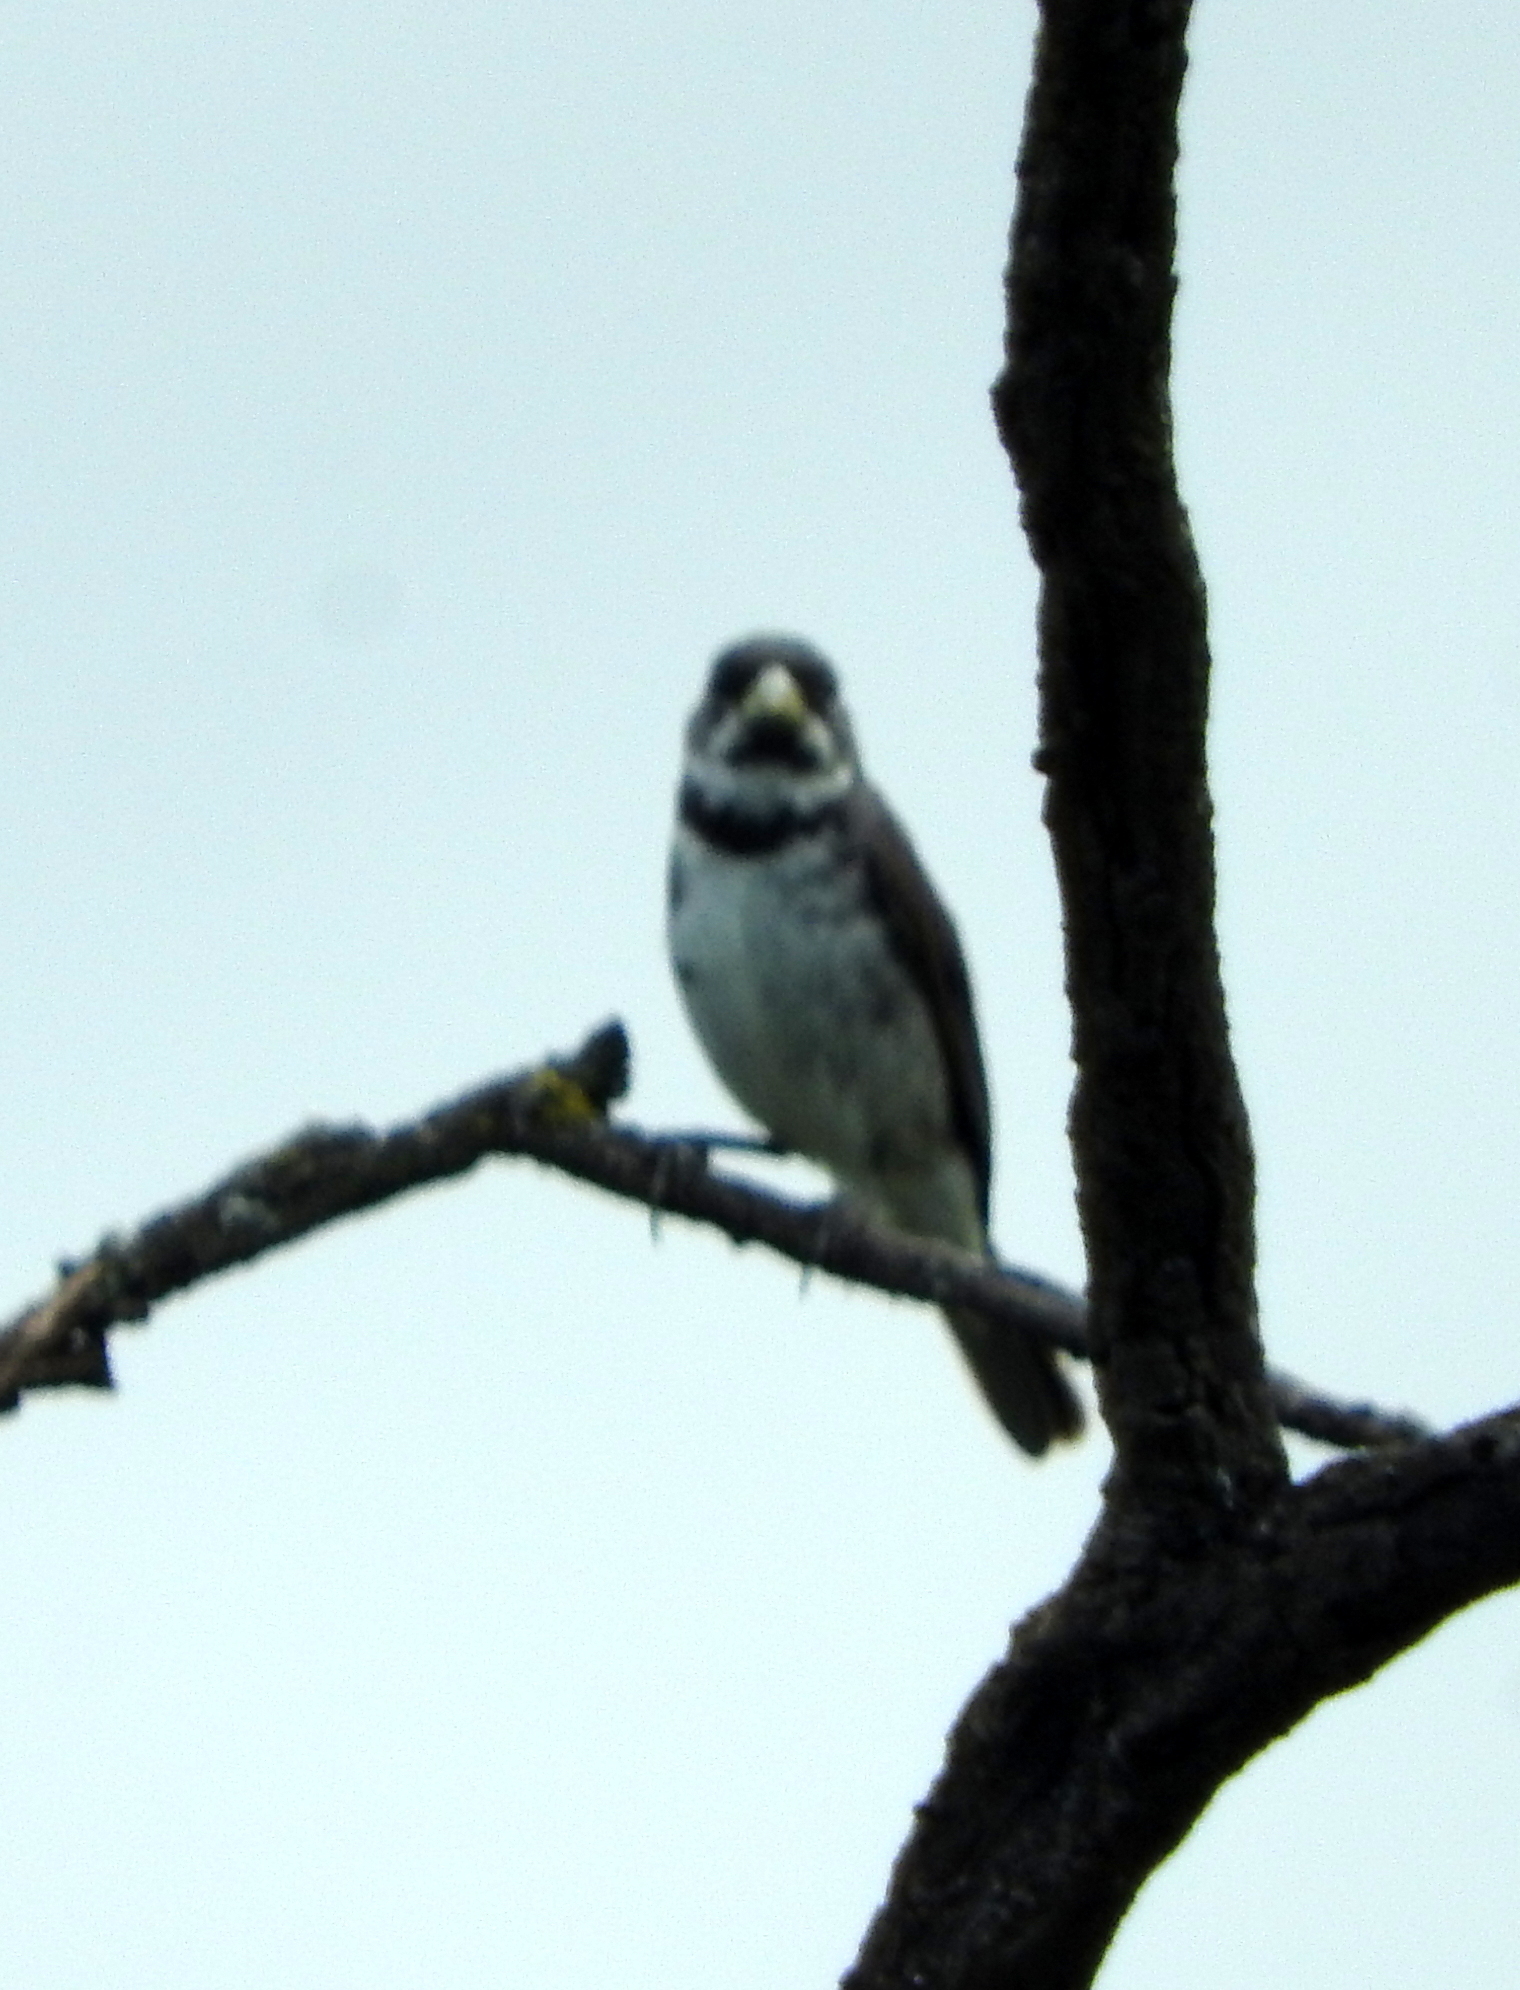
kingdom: Animalia
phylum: Chordata
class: Aves
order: Passeriformes
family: Thraupidae
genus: Sporophila
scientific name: Sporophila caerulescens
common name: Double-collared seedeater
